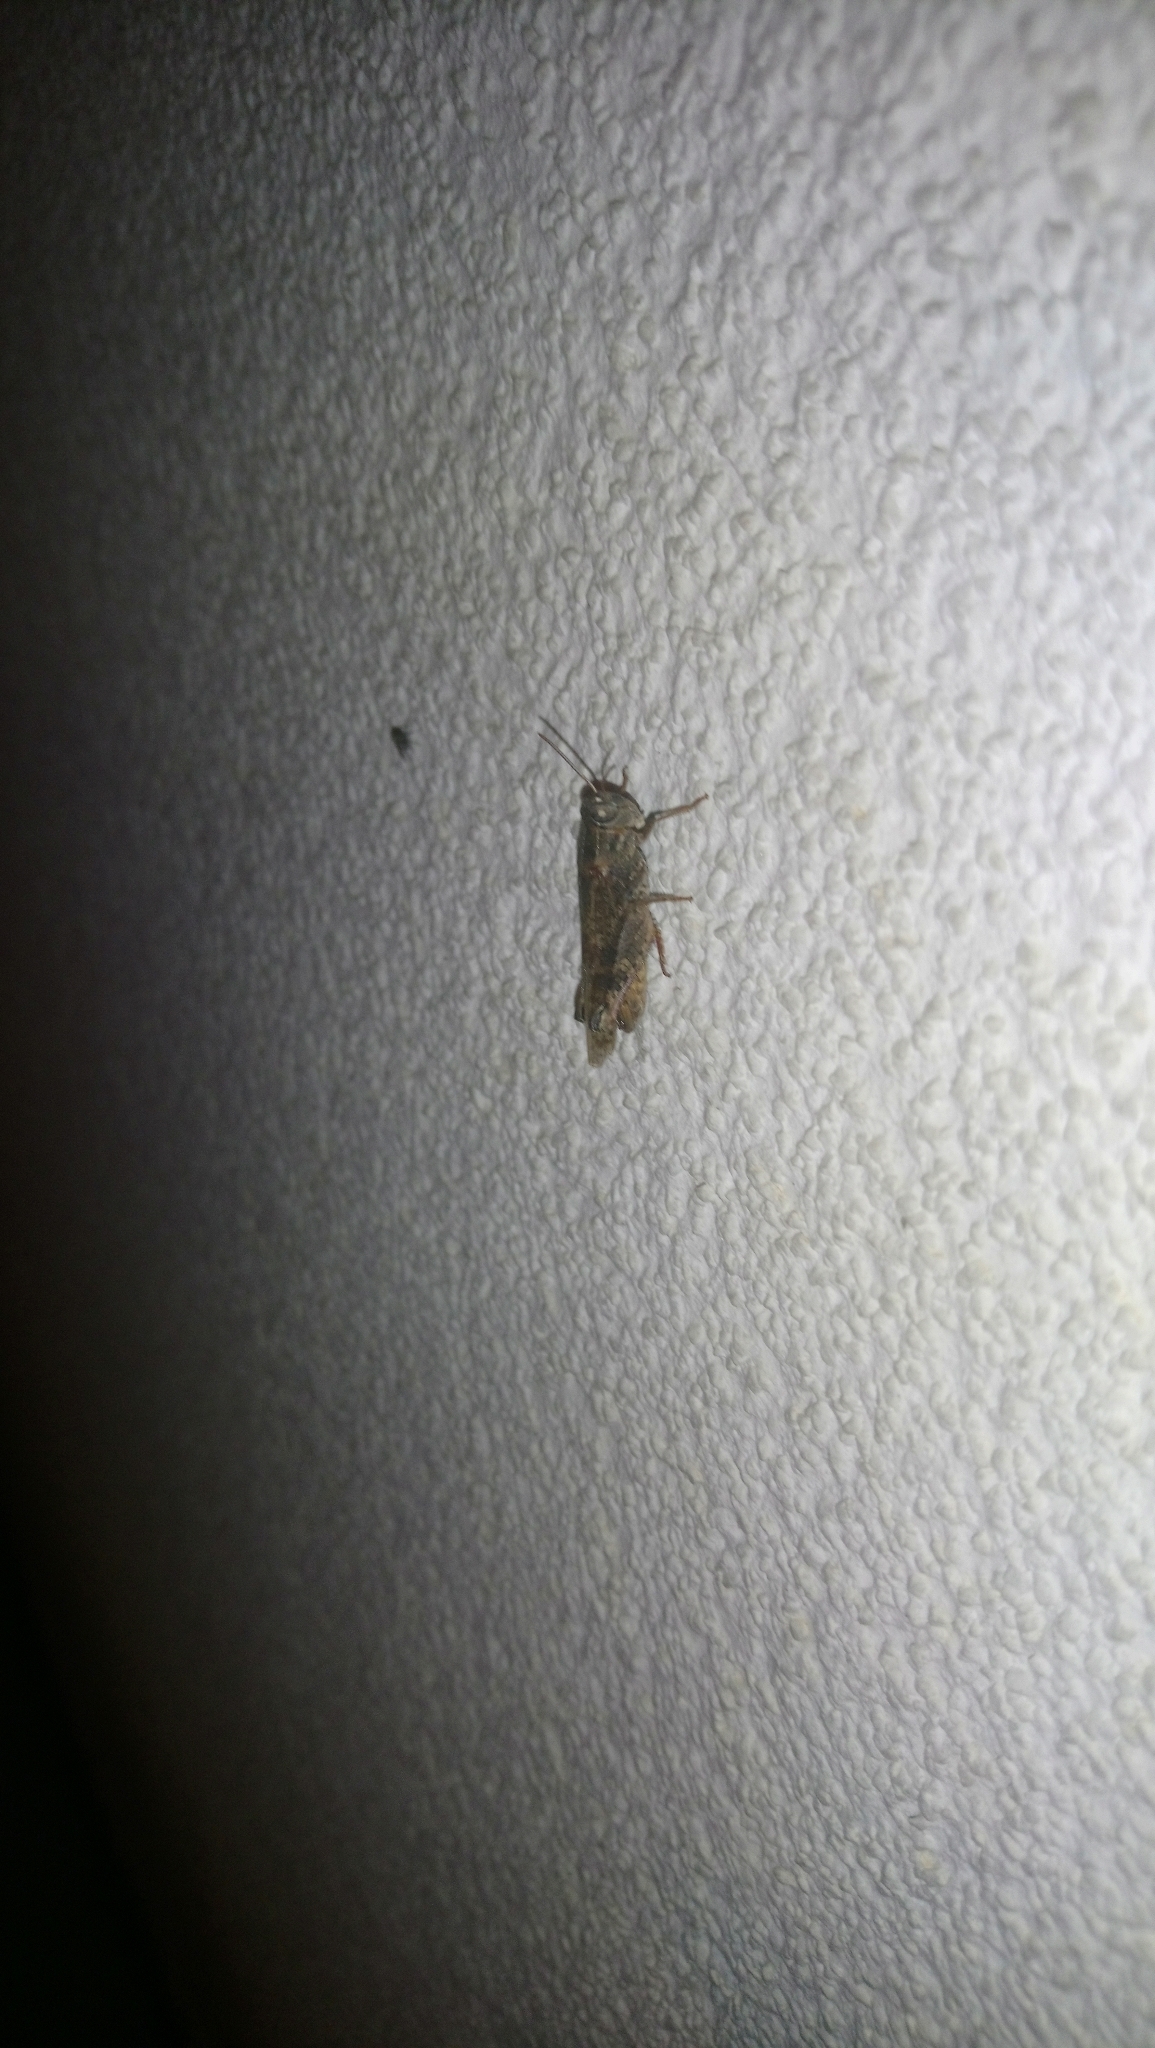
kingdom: Animalia
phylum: Arthropoda
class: Insecta
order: Orthoptera
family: Acrididae
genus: Calliptamus
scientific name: Calliptamus italicus
